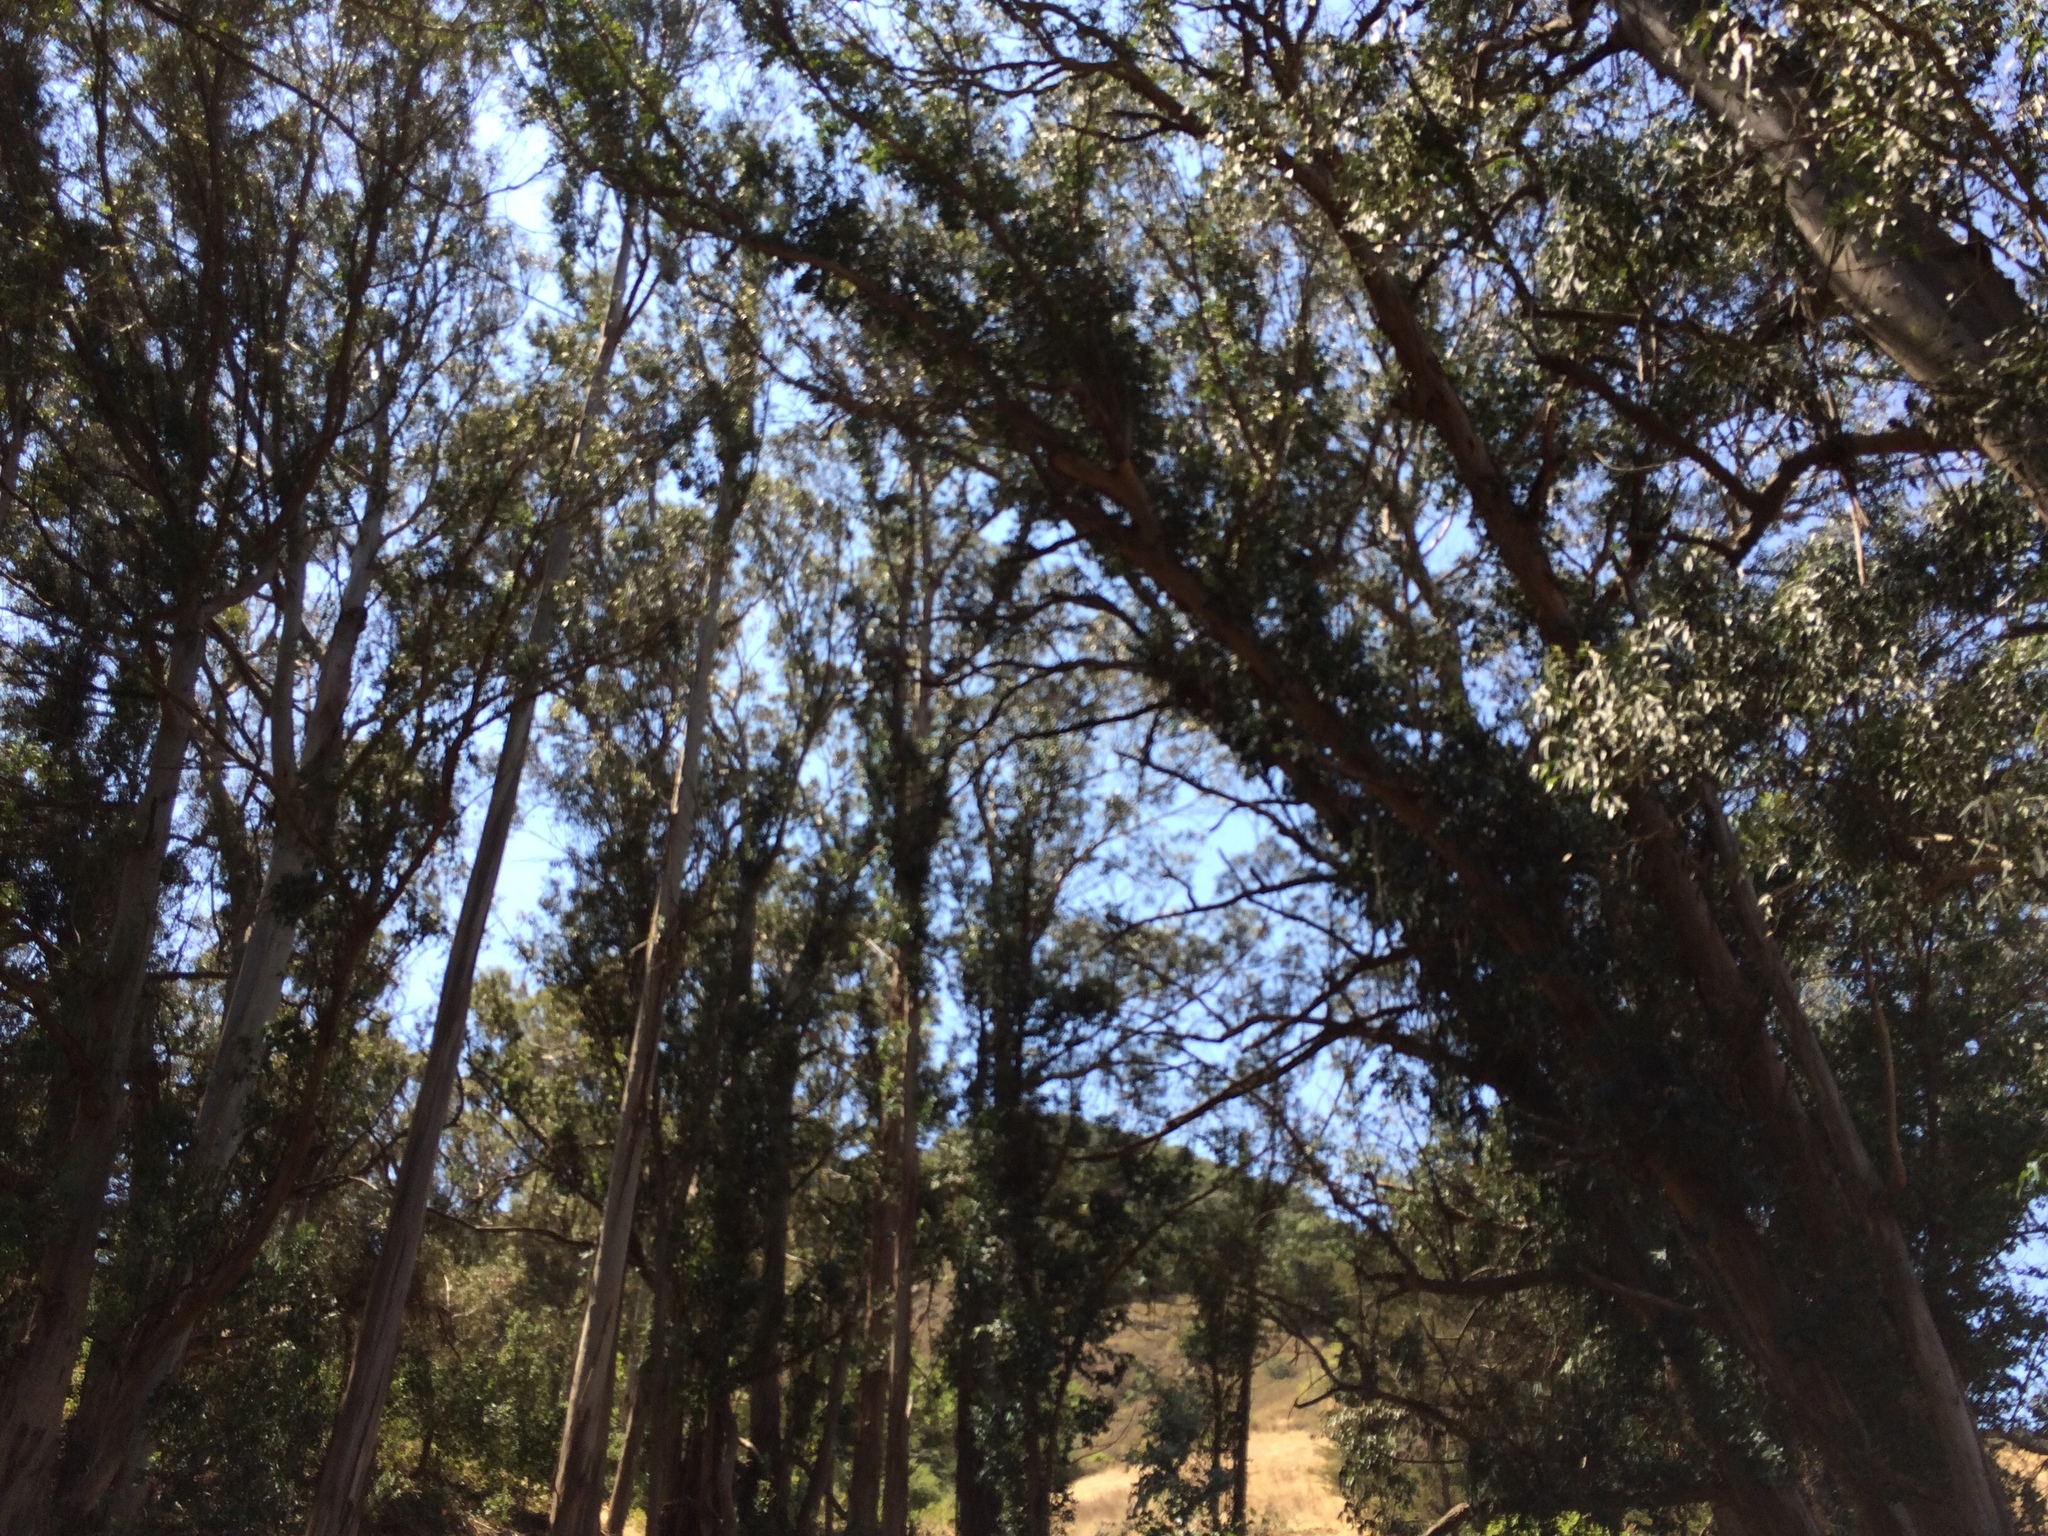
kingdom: Plantae
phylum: Tracheophyta
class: Magnoliopsida
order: Myrtales
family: Myrtaceae
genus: Eucalyptus
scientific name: Eucalyptus globulus
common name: Southern blue-gum
